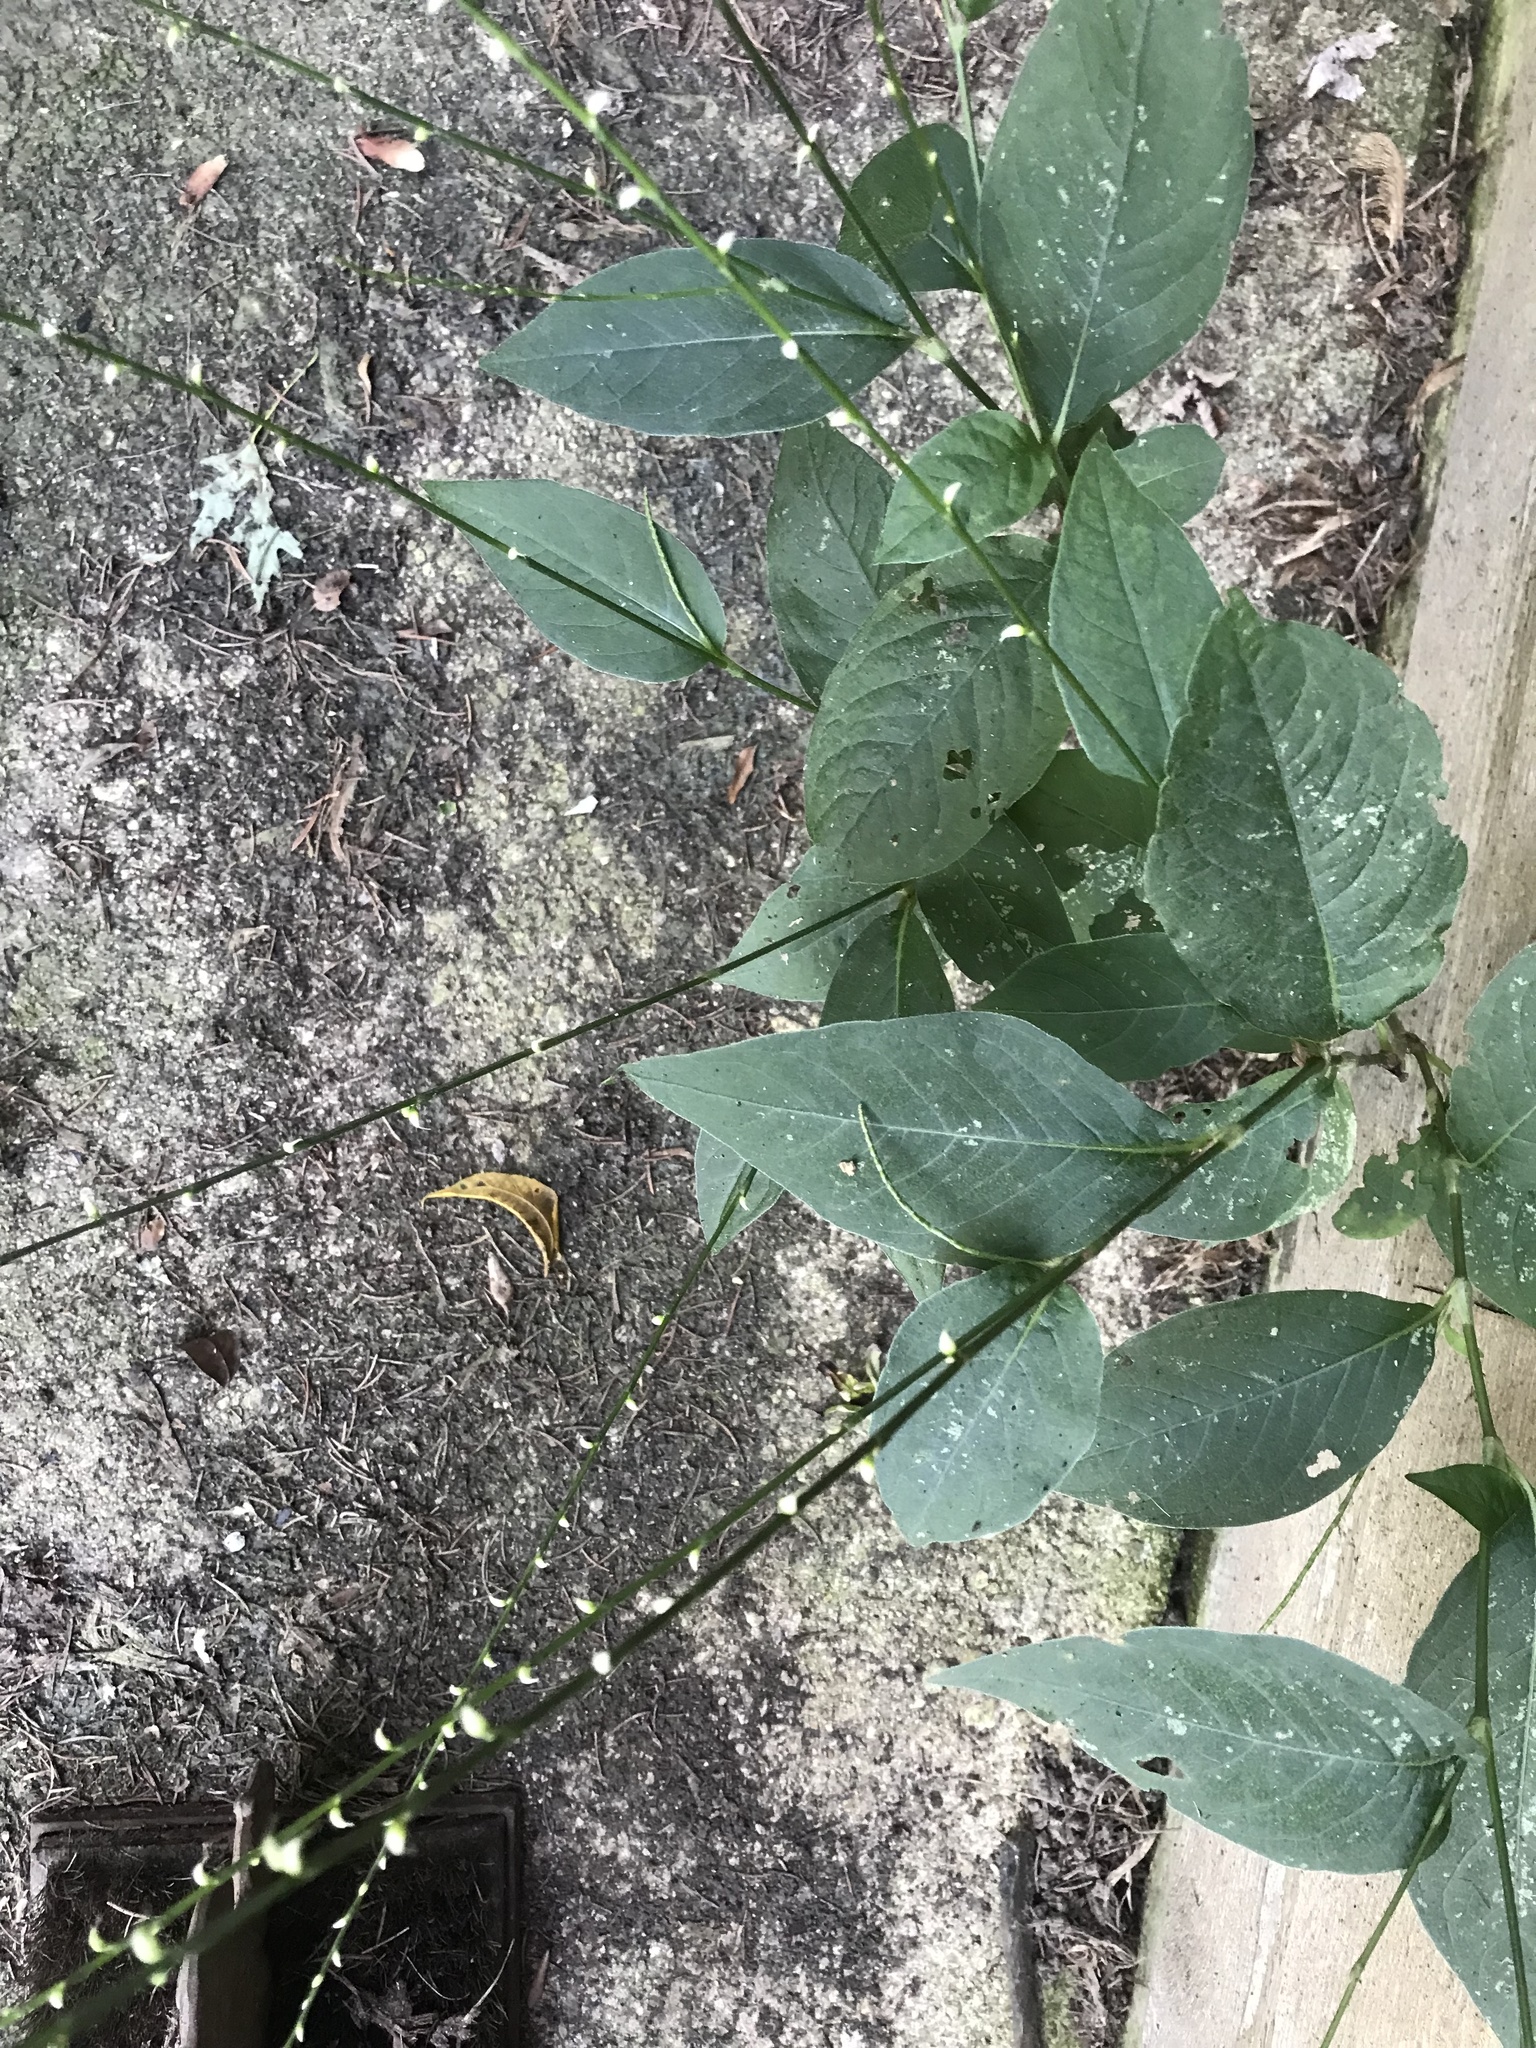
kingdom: Plantae
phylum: Tracheophyta
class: Magnoliopsida
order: Caryophyllales
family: Polygonaceae
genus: Persicaria
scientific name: Persicaria virginiana
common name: Jumpseed
